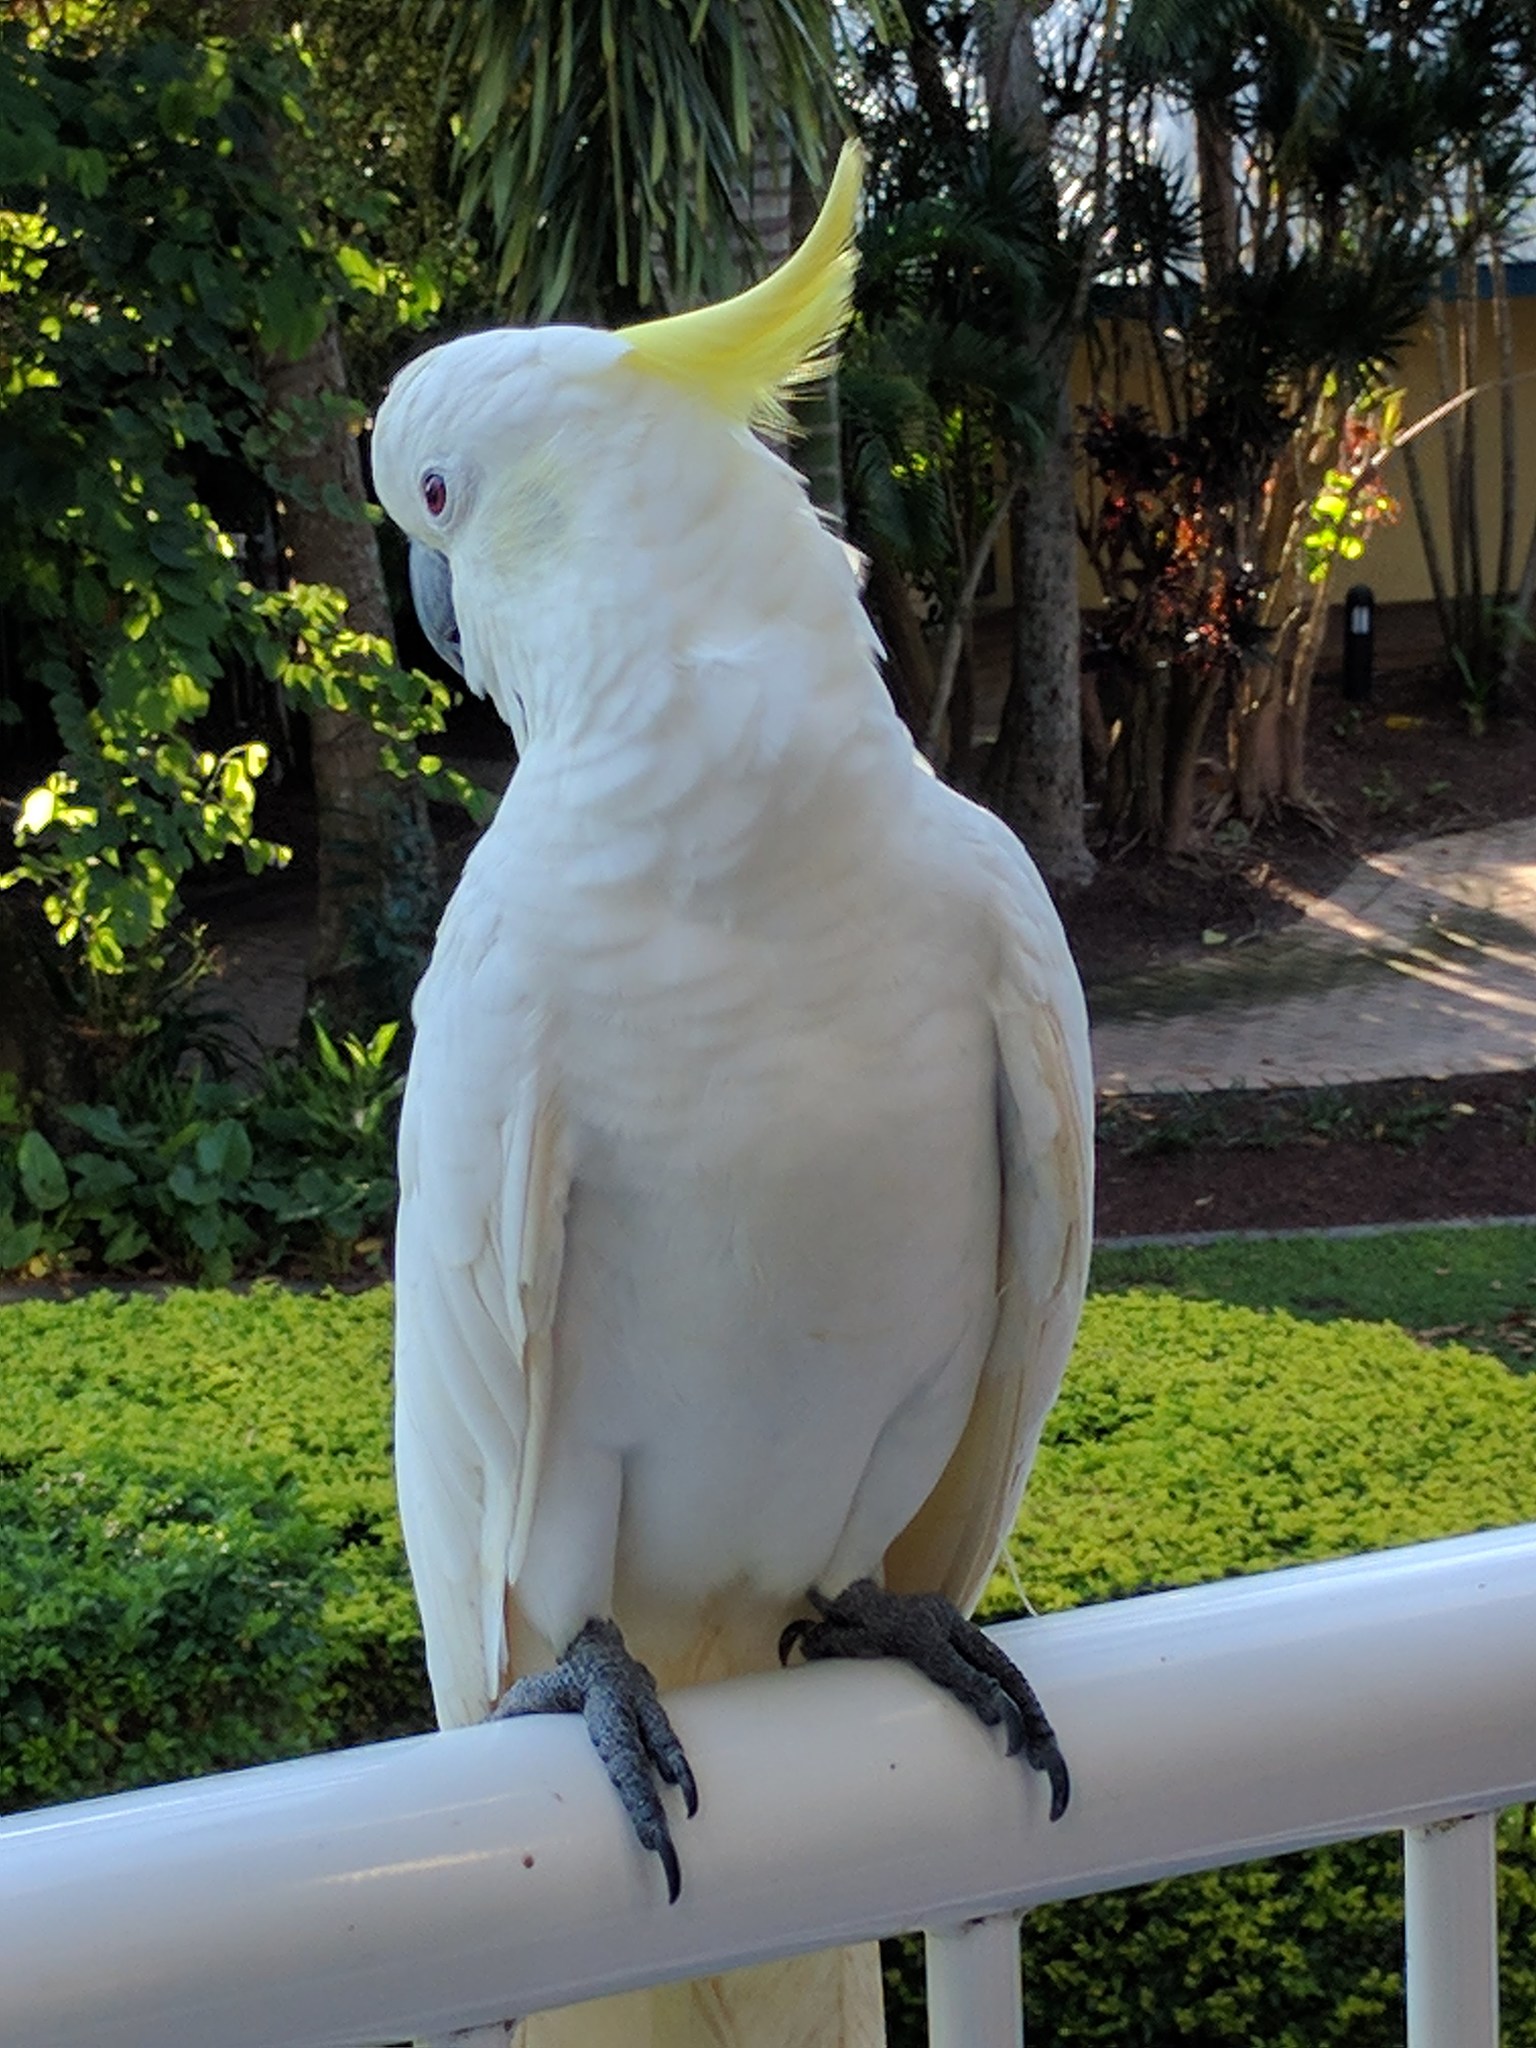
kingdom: Animalia
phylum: Chordata
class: Aves
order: Psittaciformes
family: Psittacidae
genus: Cacatua
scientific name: Cacatua galerita
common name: Sulphur-crested cockatoo
